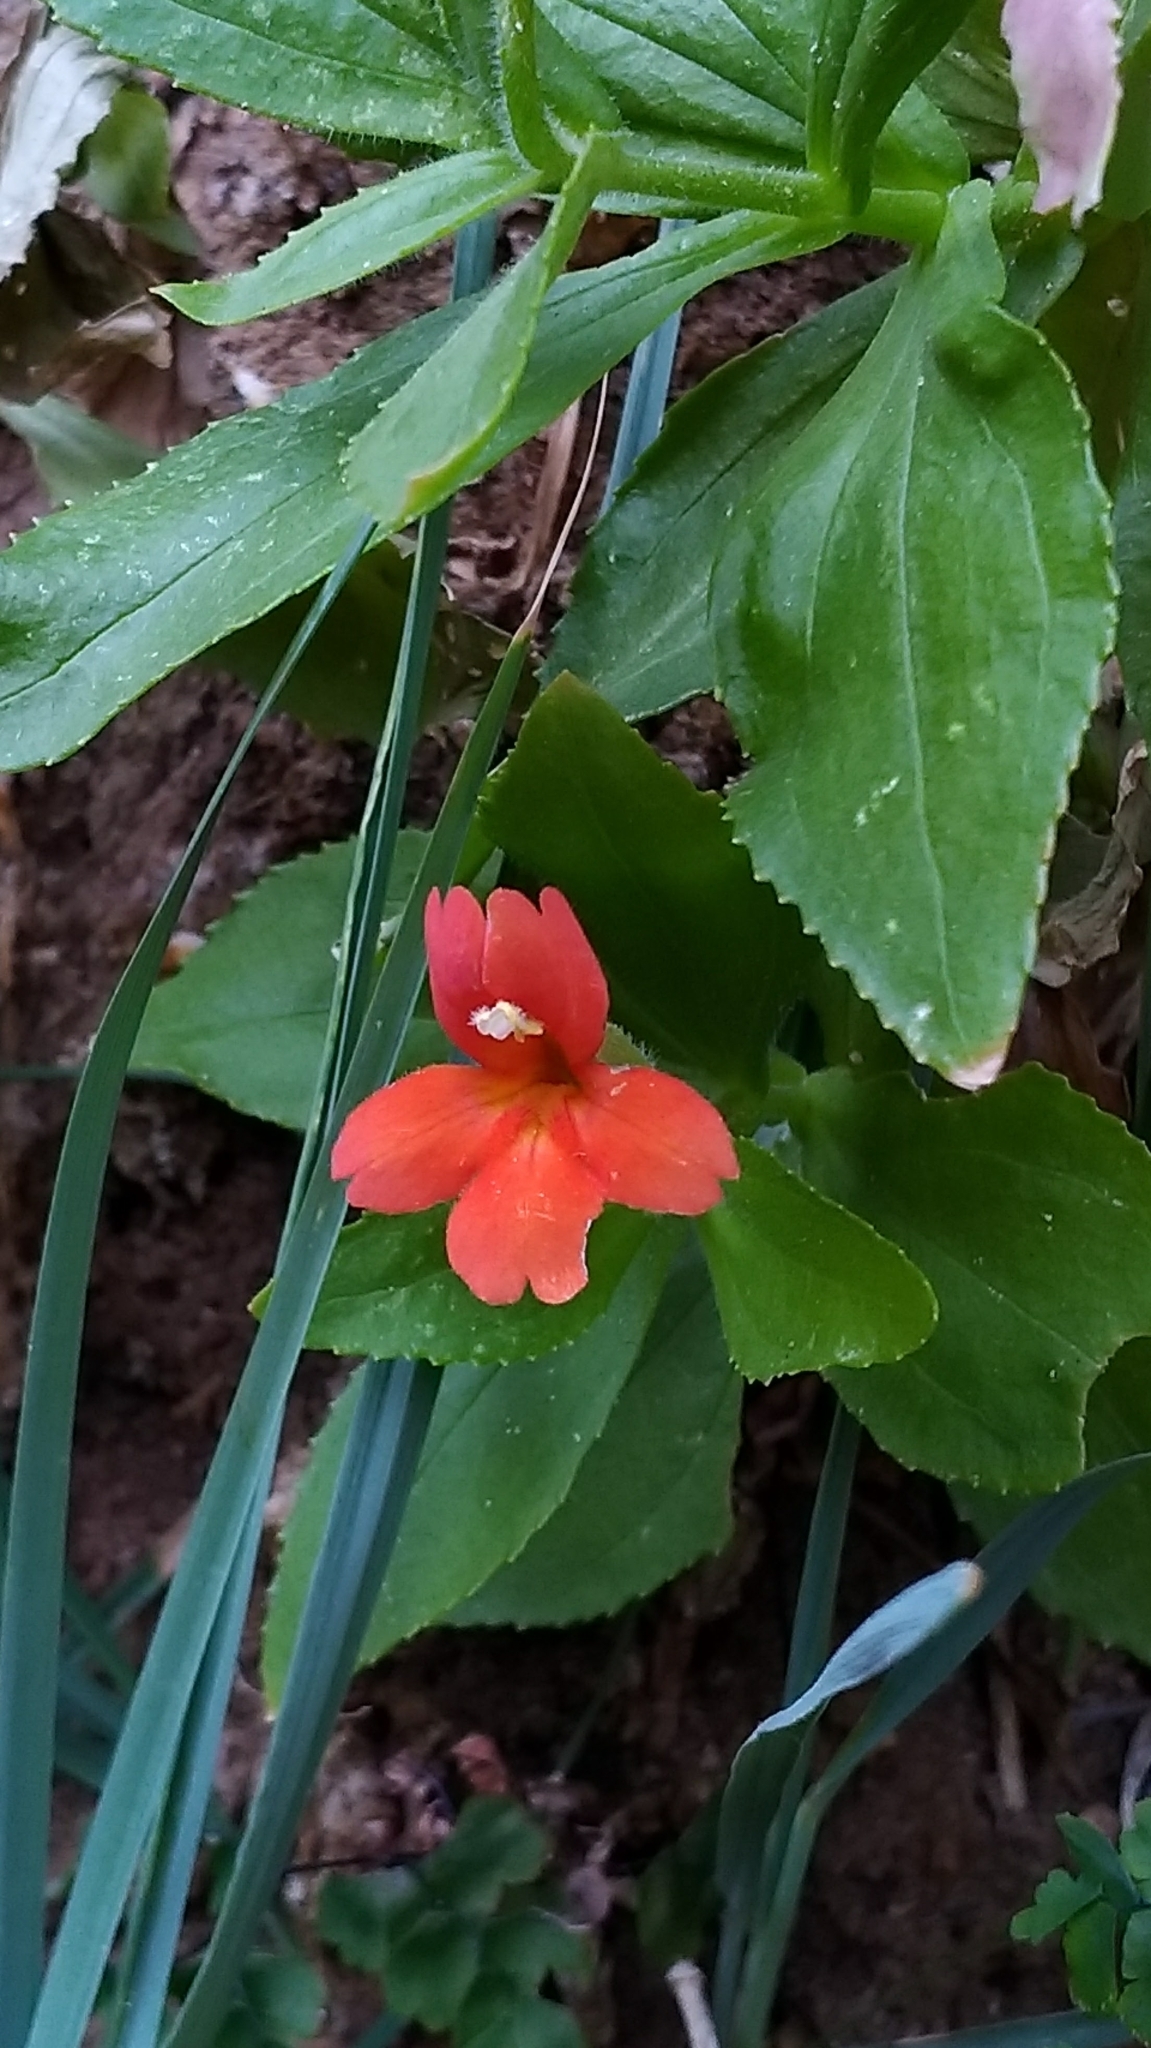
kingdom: Plantae
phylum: Tracheophyta
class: Magnoliopsida
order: Lamiales
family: Phrymaceae
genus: Erythranthe
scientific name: Erythranthe verbenacea
